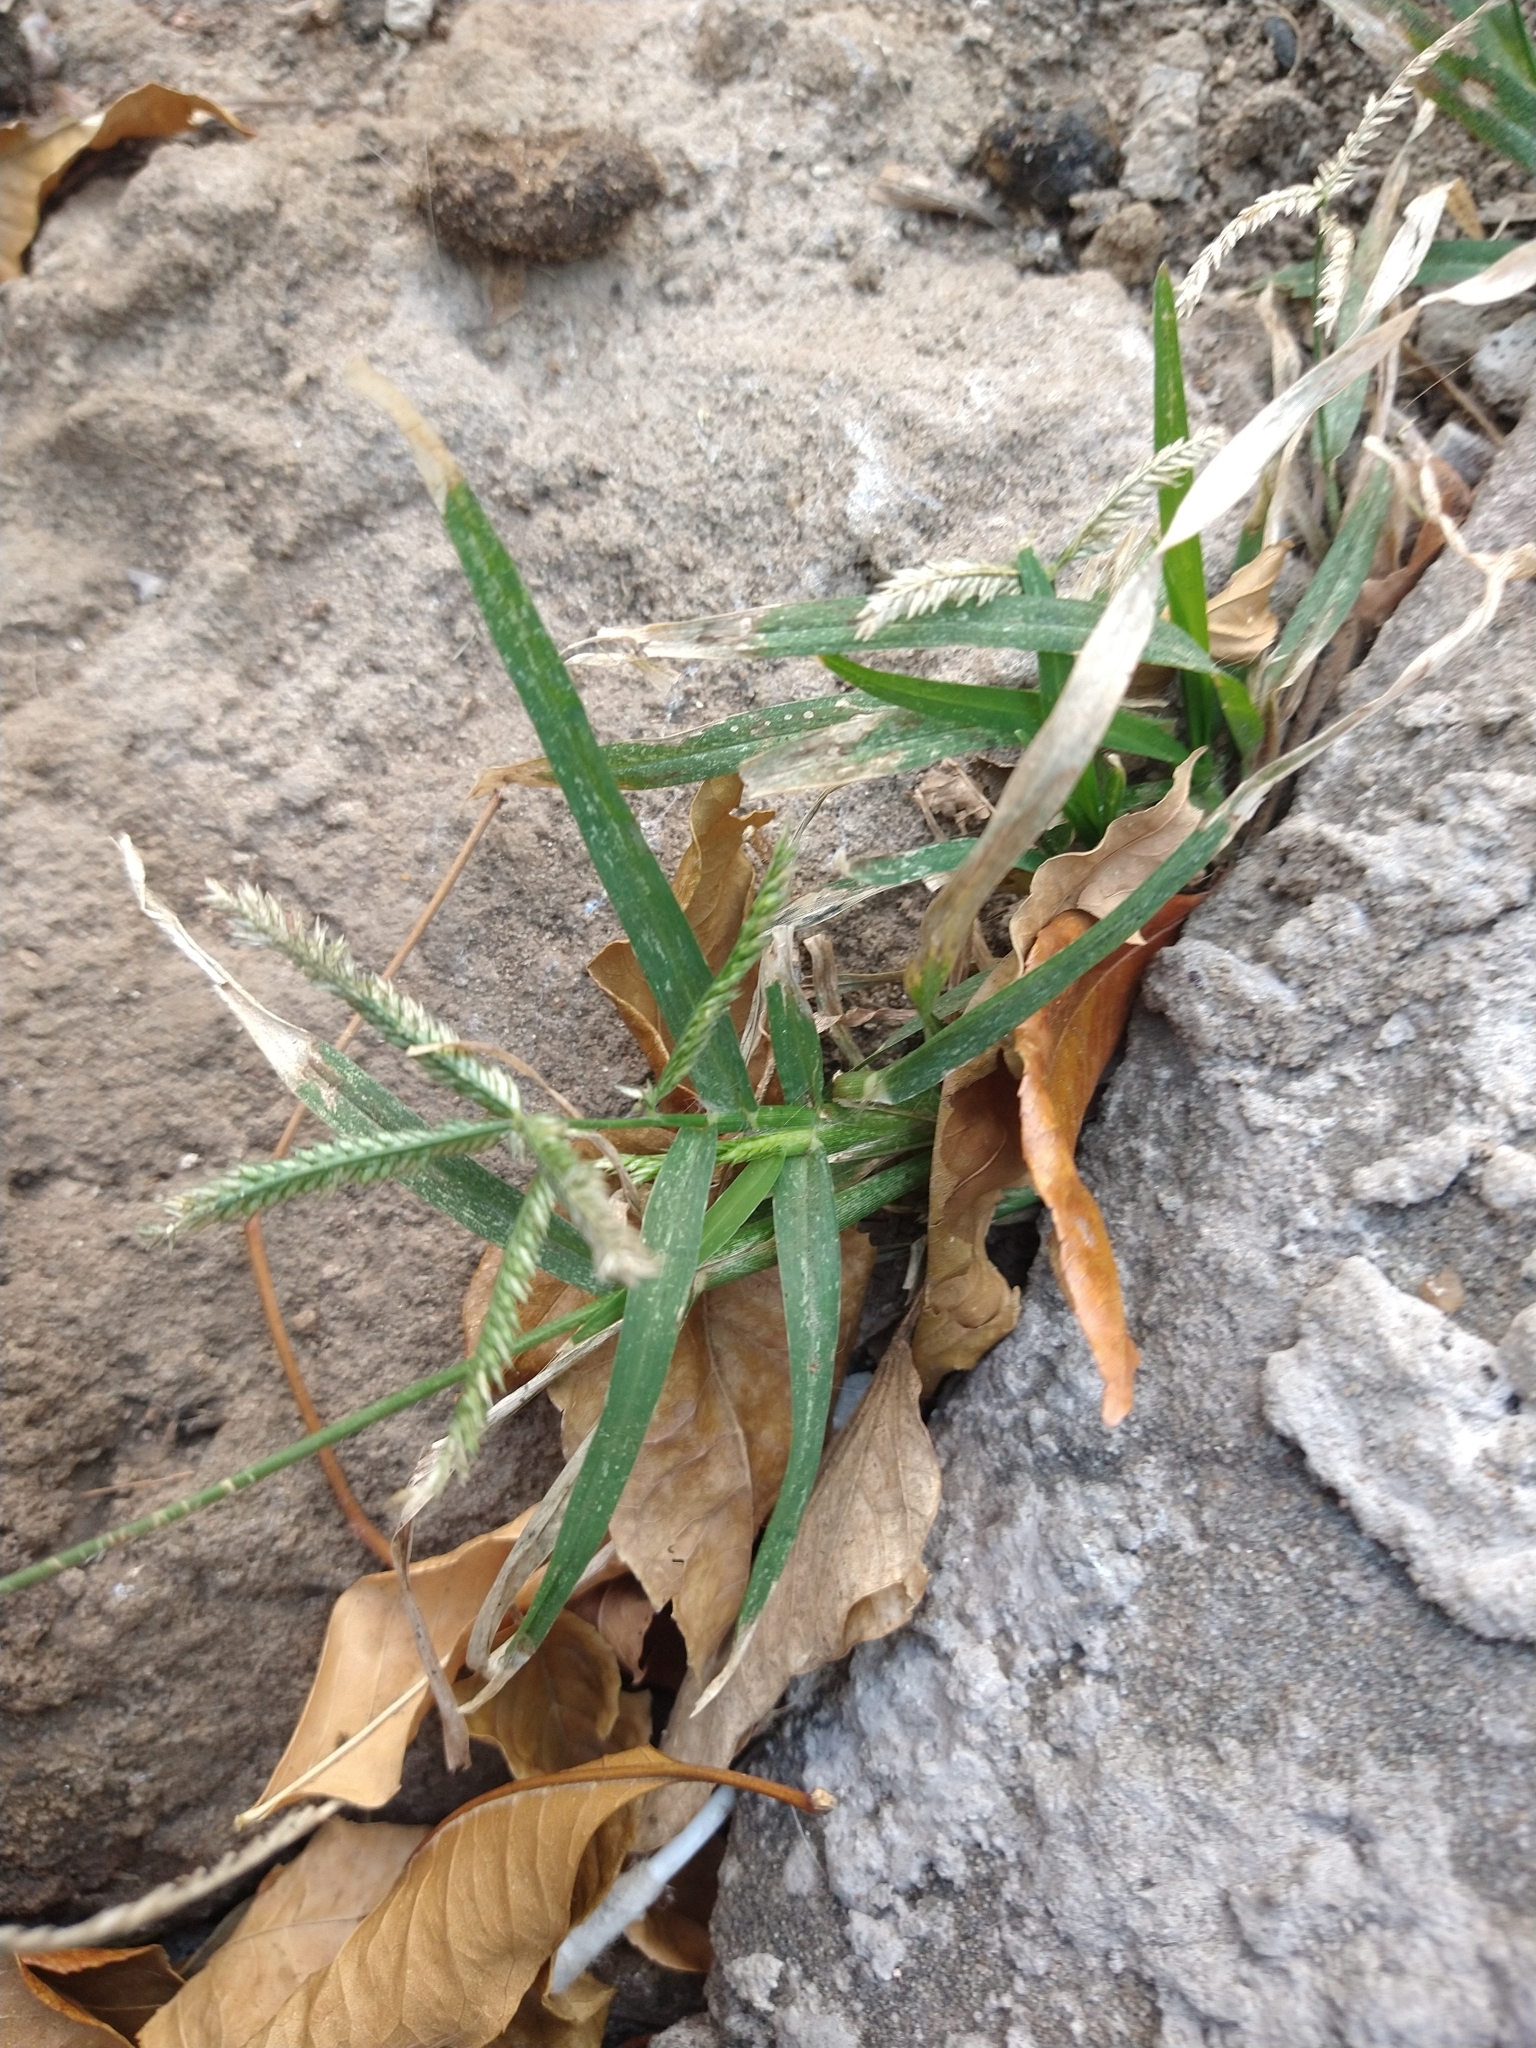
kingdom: Plantae
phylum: Tracheophyta
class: Liliopsida
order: Poales
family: Poaceae
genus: Eleusine
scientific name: Eleusine indica
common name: Yard-grass
